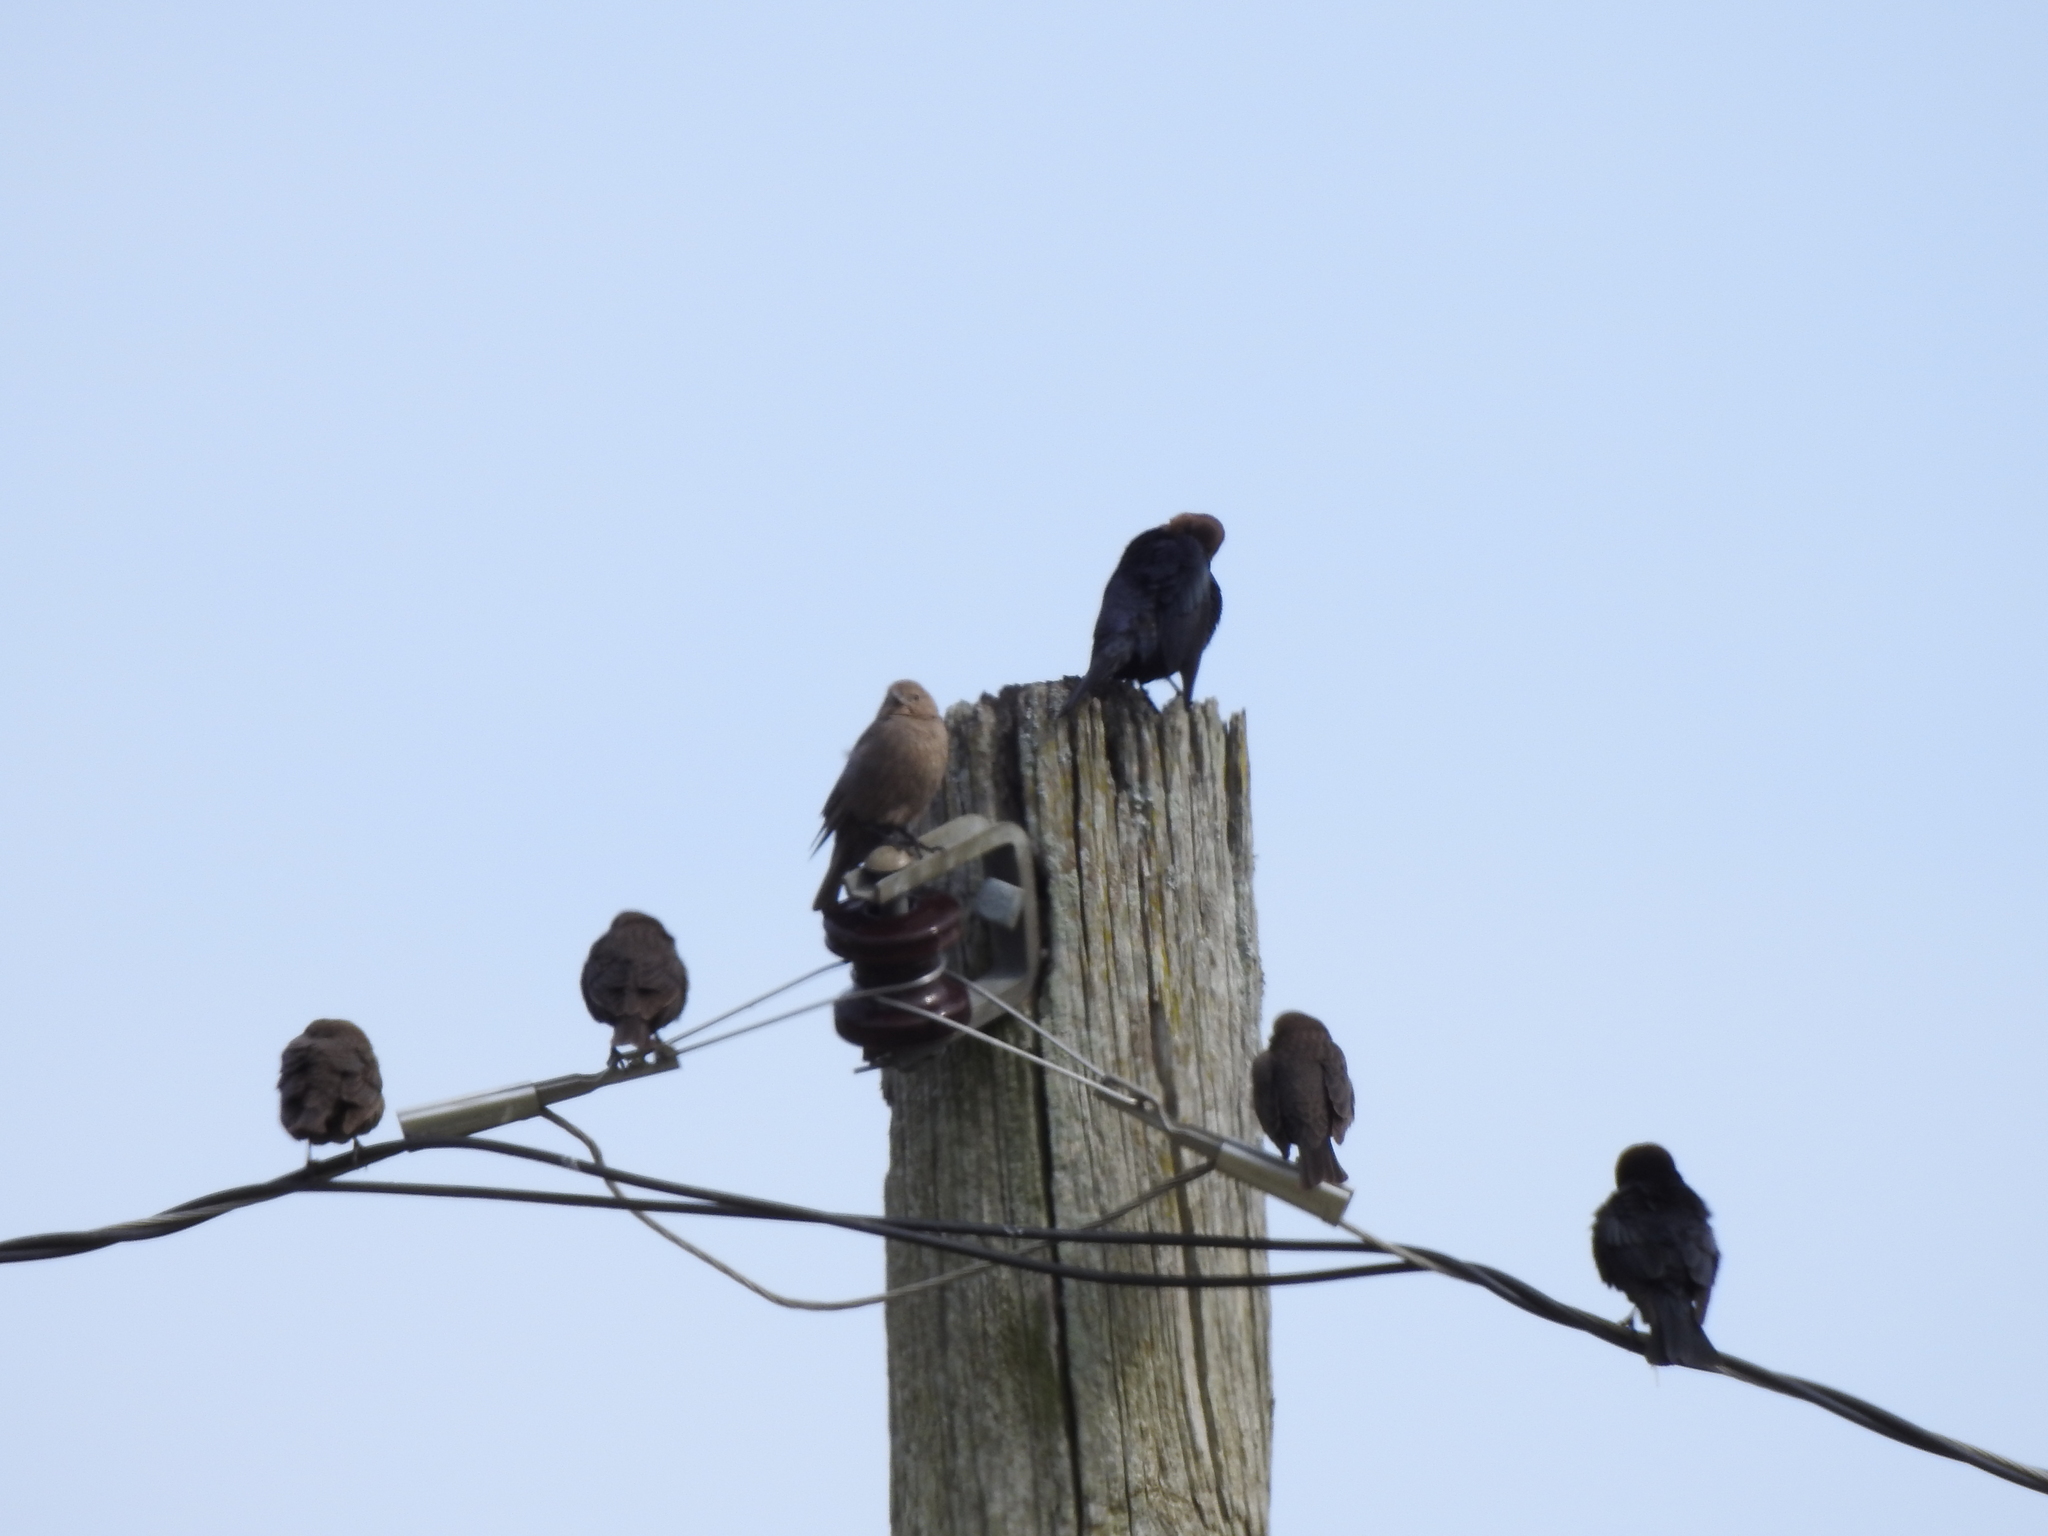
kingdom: Animalia
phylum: Chordata
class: Aves
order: Passeriformes
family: Icteridae
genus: Molothrus
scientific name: Molothrus ater
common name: Brown-headed cowbird
